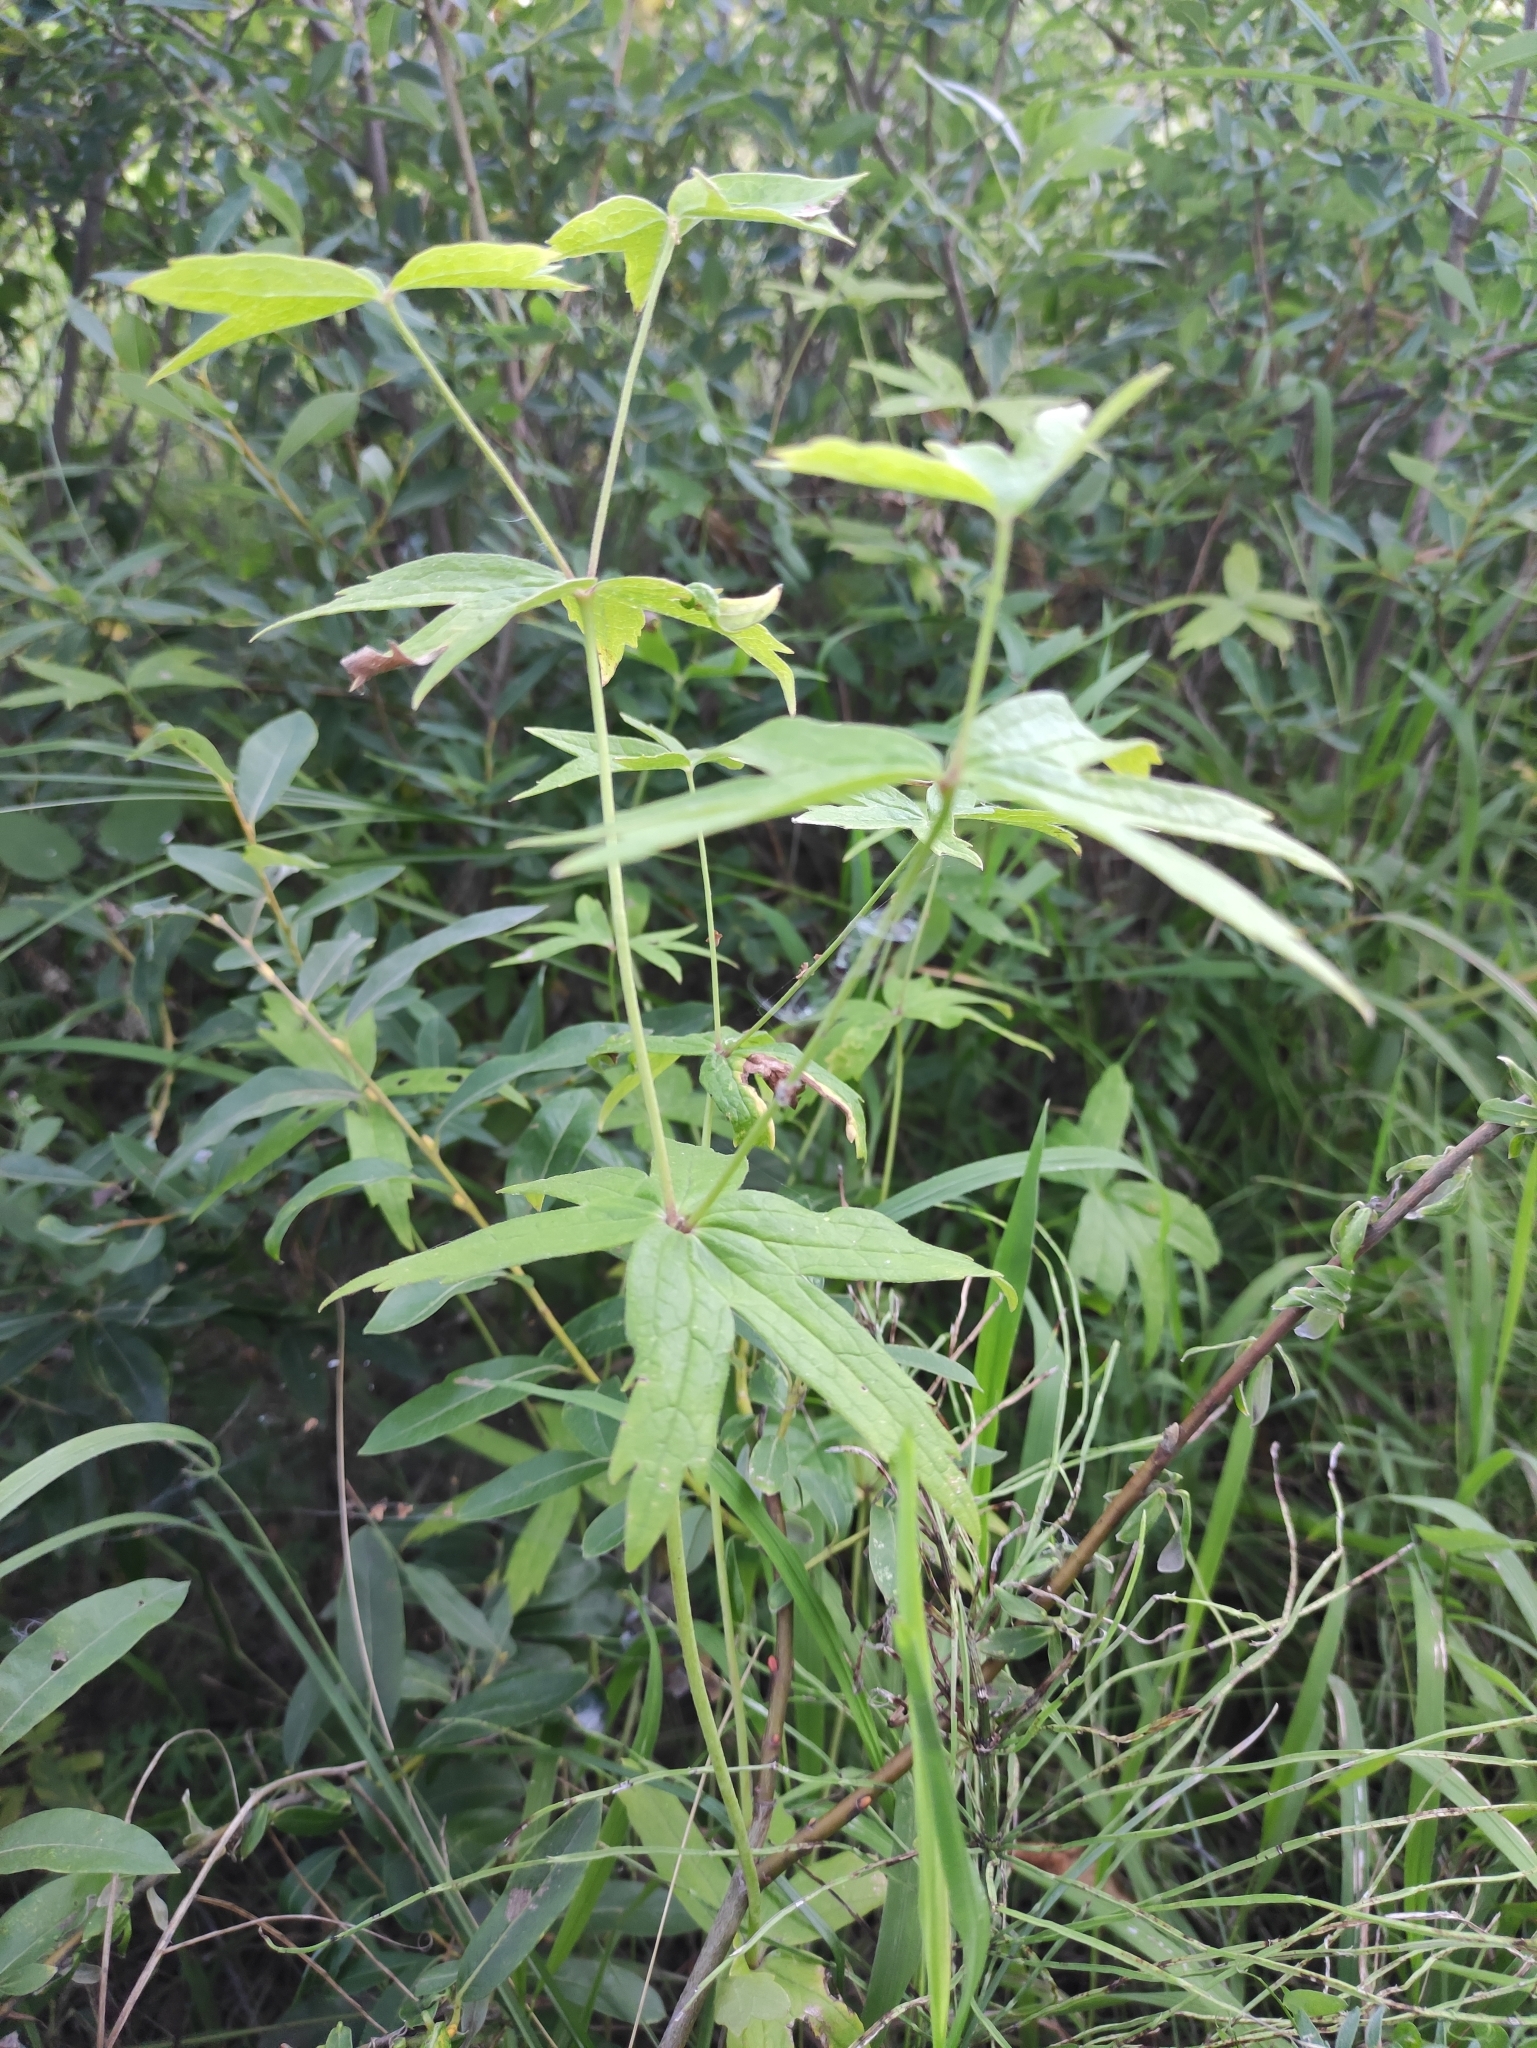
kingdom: Plantae
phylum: Tracheophyta
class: Magnoliopsida
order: Ranunculales
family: Ranunculaceae
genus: Anemonastrum
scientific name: Anemonastrum dichotomum
